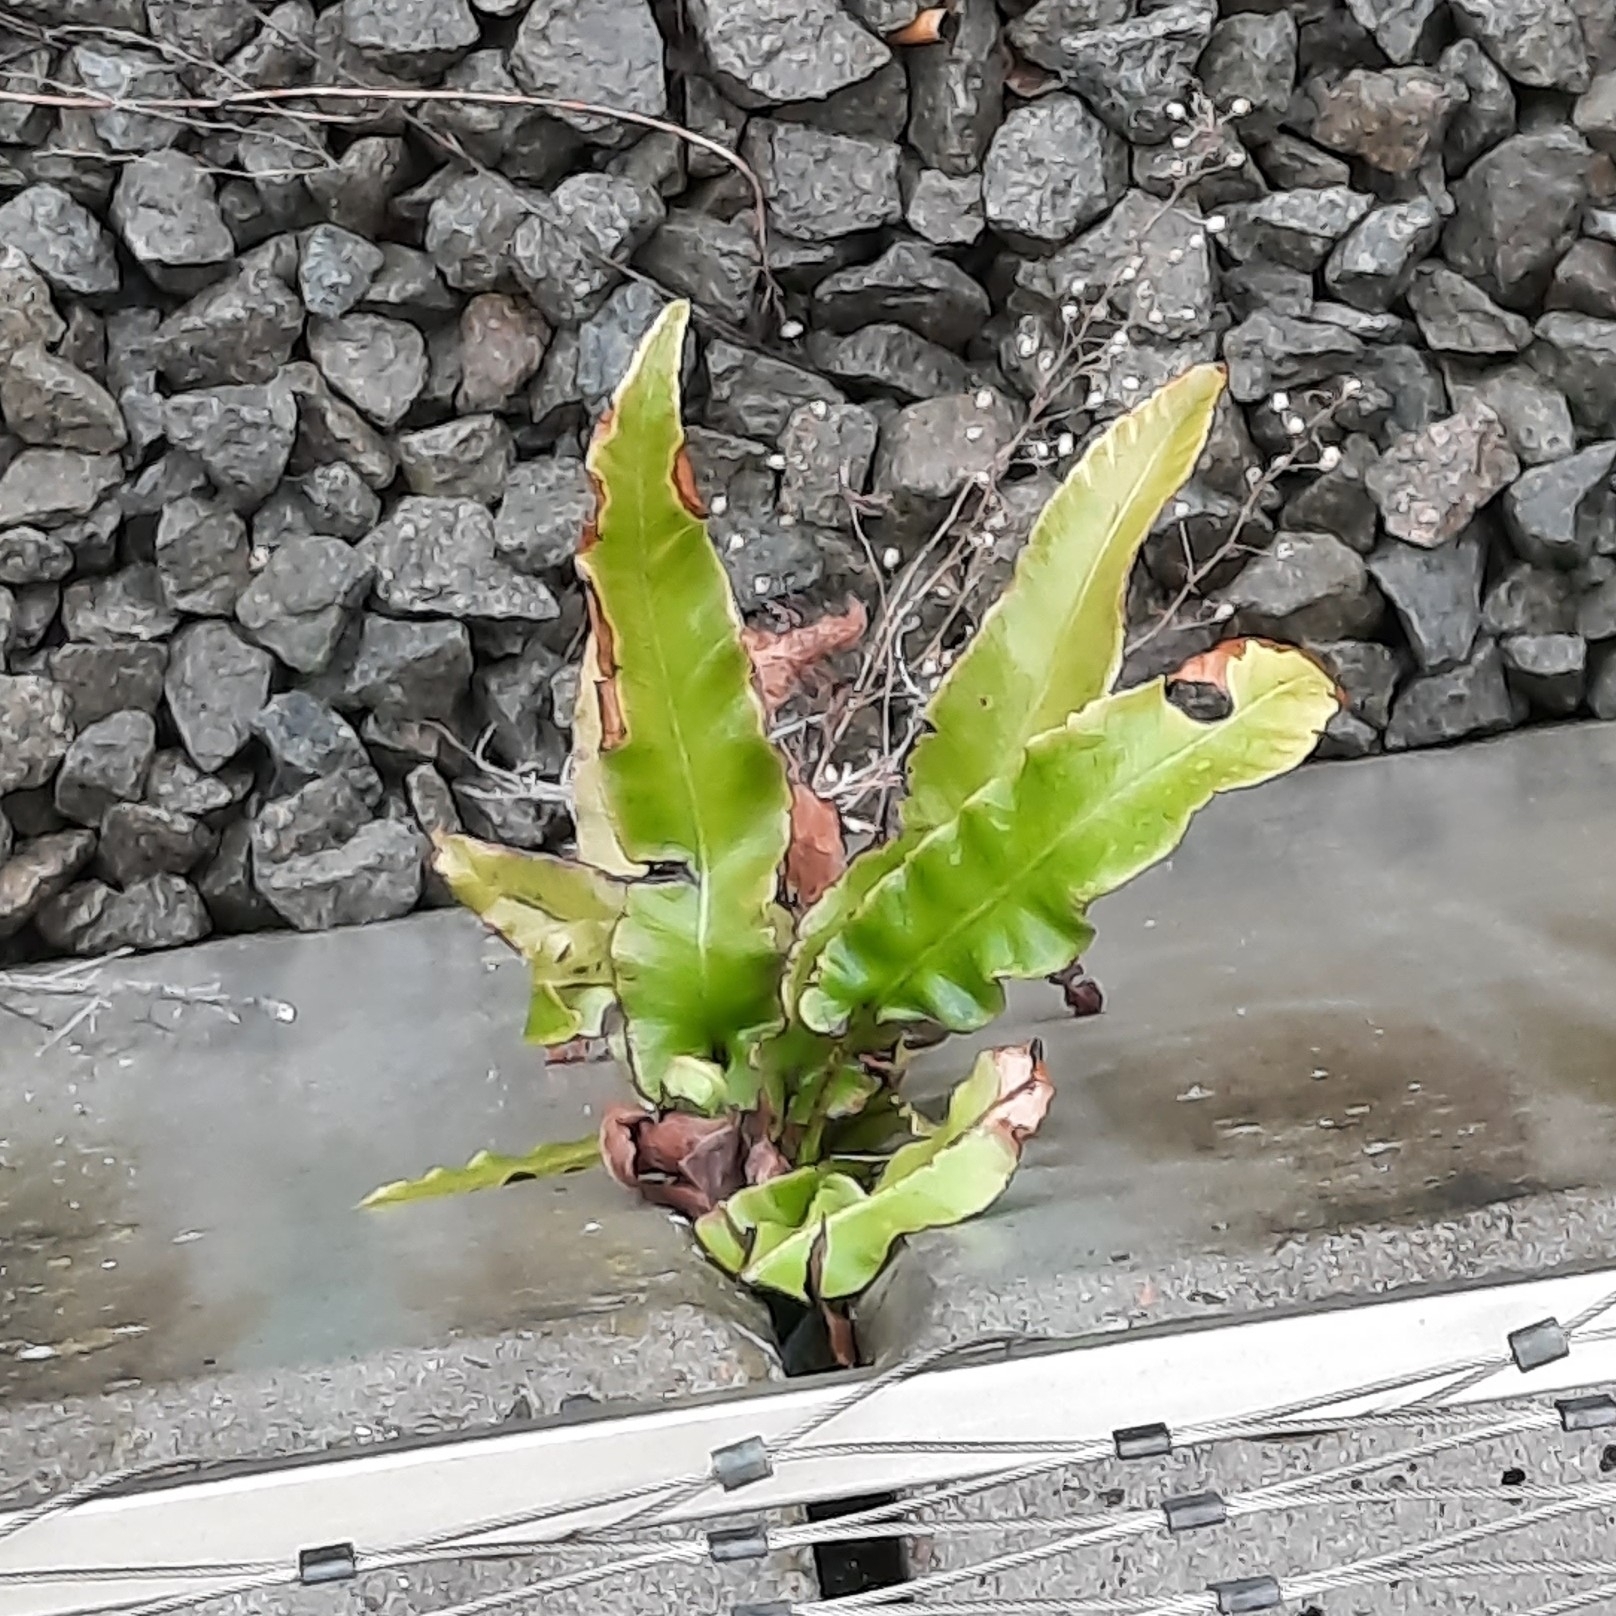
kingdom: Plantae
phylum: Tracheophyta
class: Polypodiopsida
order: Polypodiales
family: Aspleniaceae
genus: Asplenium
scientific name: Asplenium scolopendrium
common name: Hart's-tongue fern
